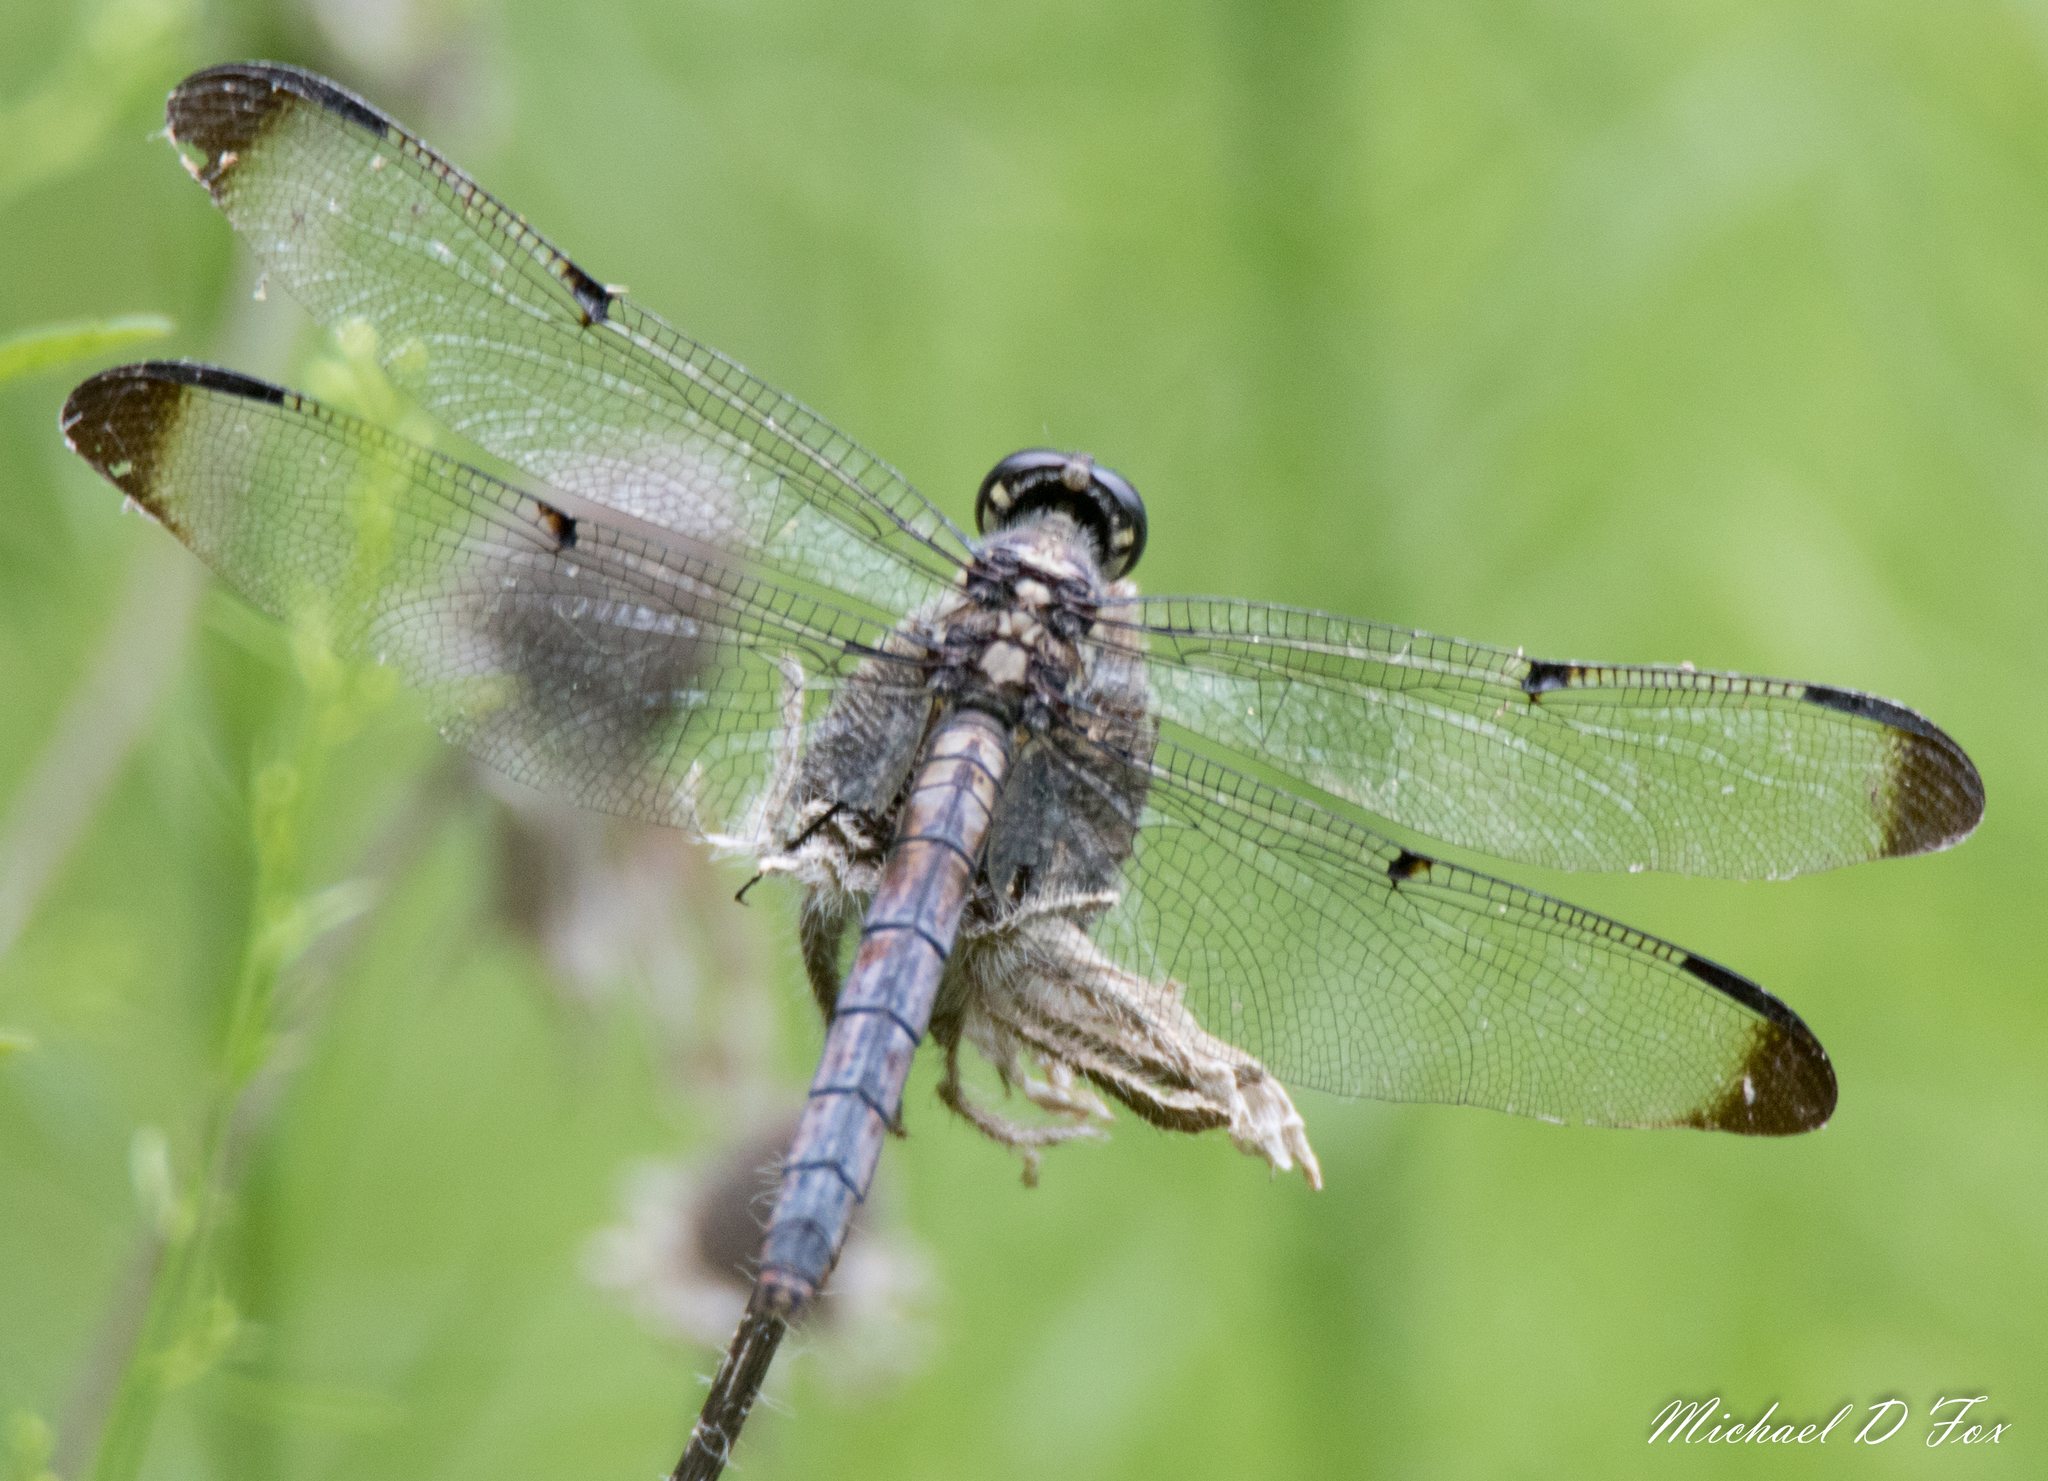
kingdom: Animalia
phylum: Arthropoda
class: Insecta
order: Odonata
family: Libellulidae
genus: Libellula
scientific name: Libellula vibrans
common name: Great blue skimmer
